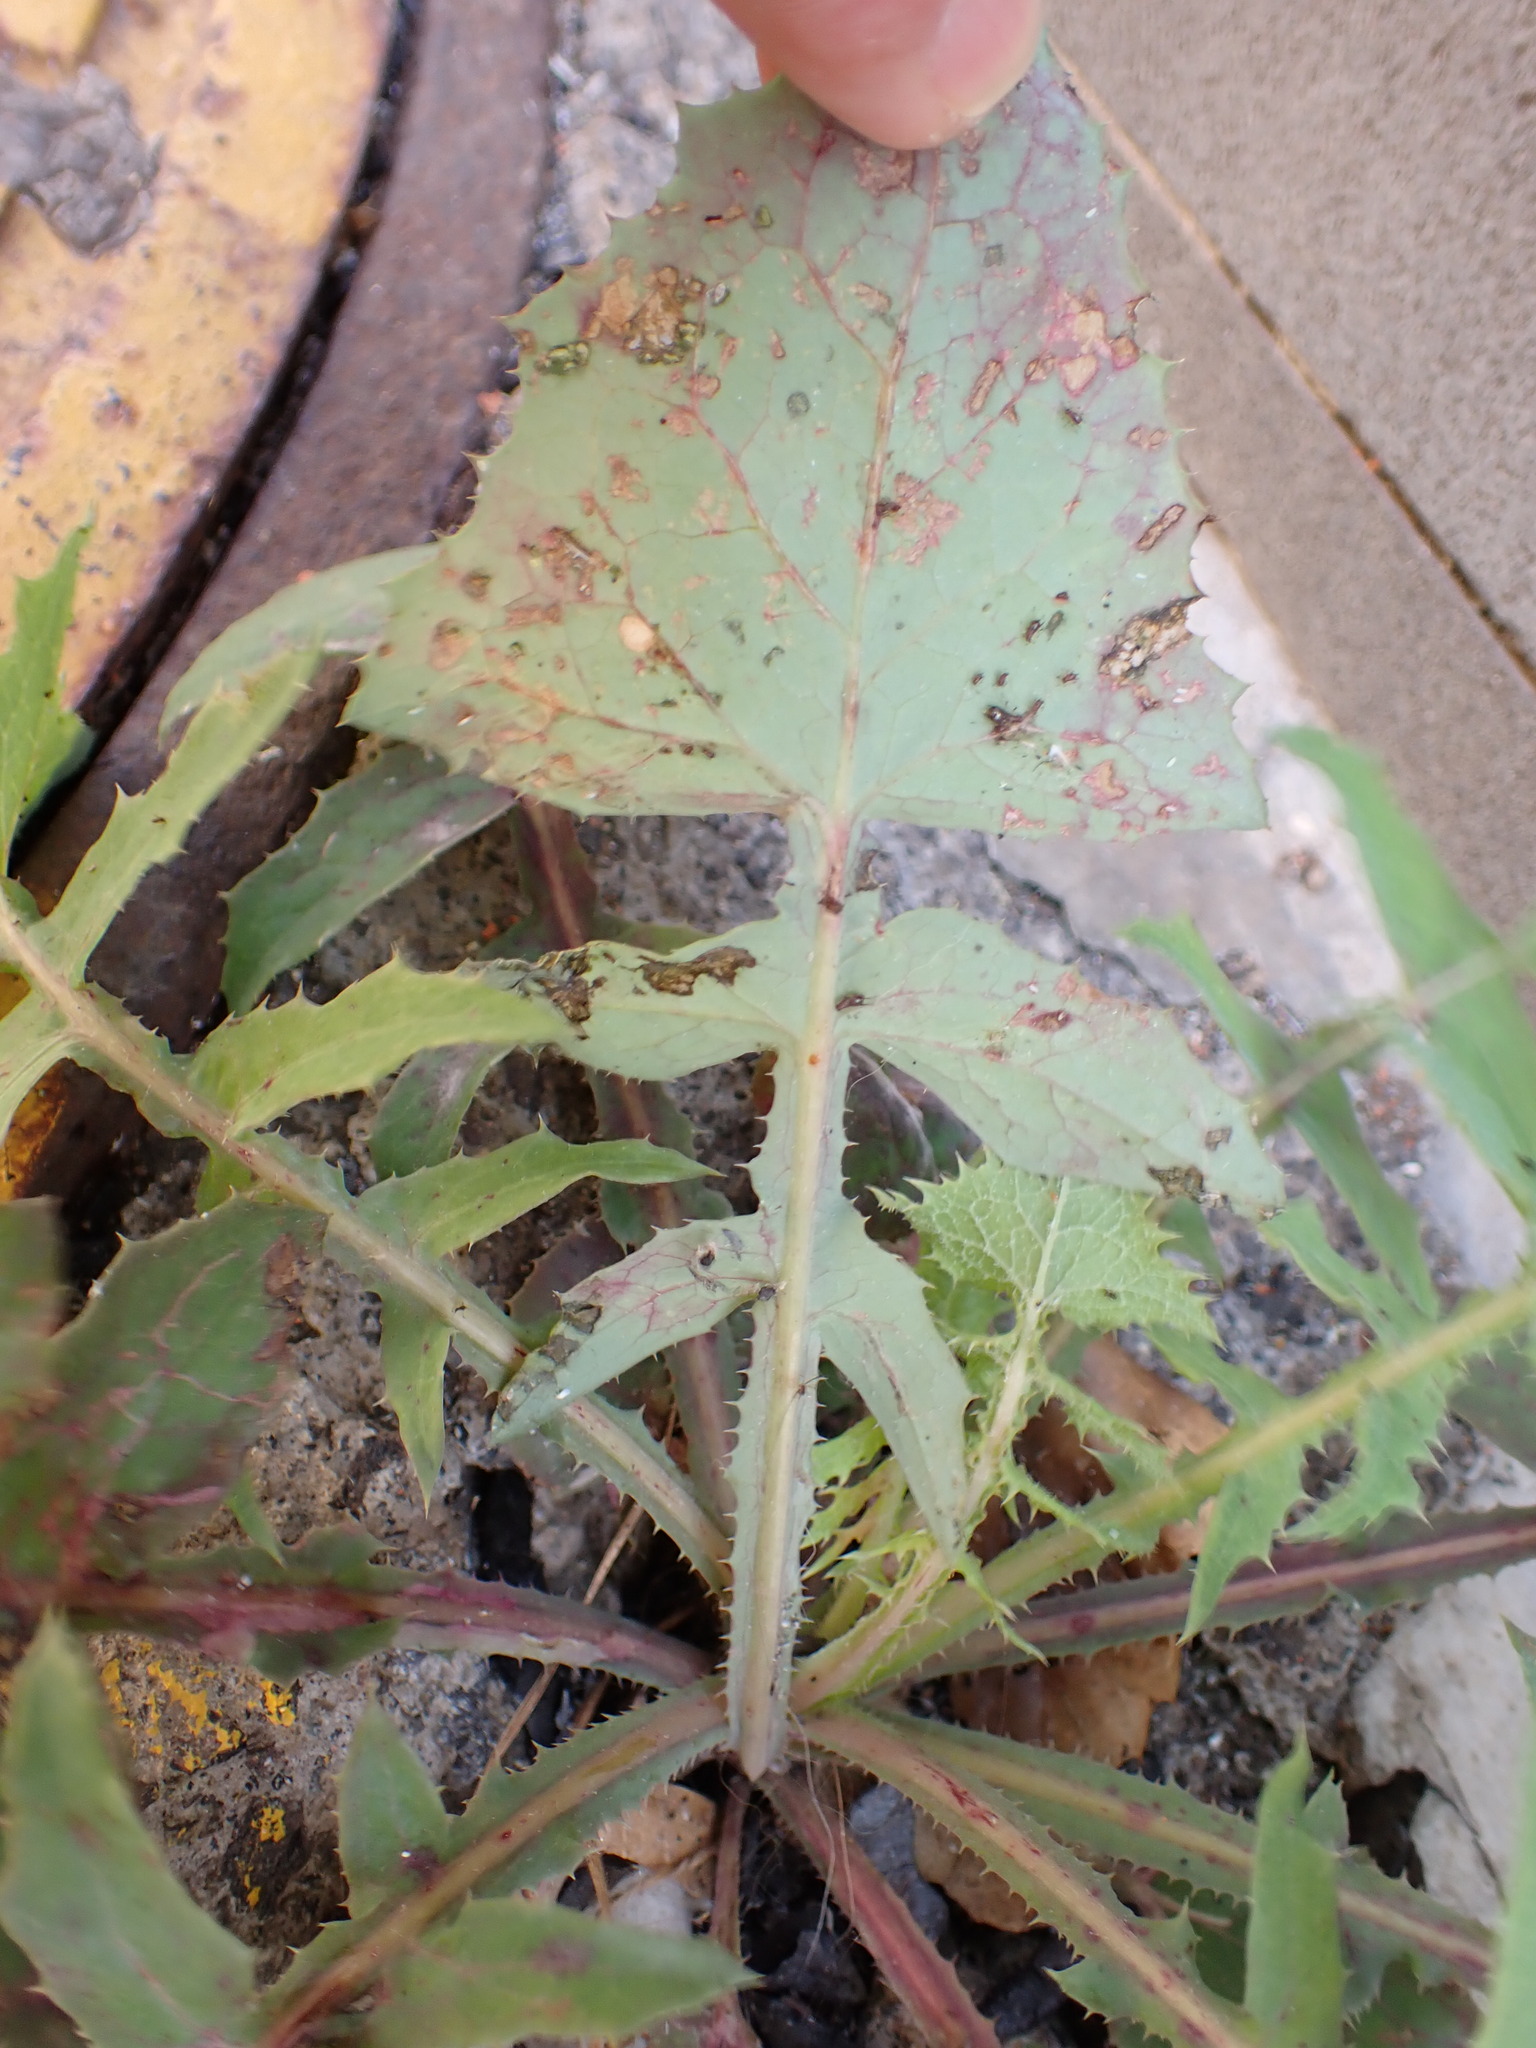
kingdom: Plantae
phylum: Tracheophyta
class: Magnoliopsida
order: Asterales
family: Asteraceae
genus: Sonchus
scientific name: Sonchus oleraceus
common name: Common sowthistle
